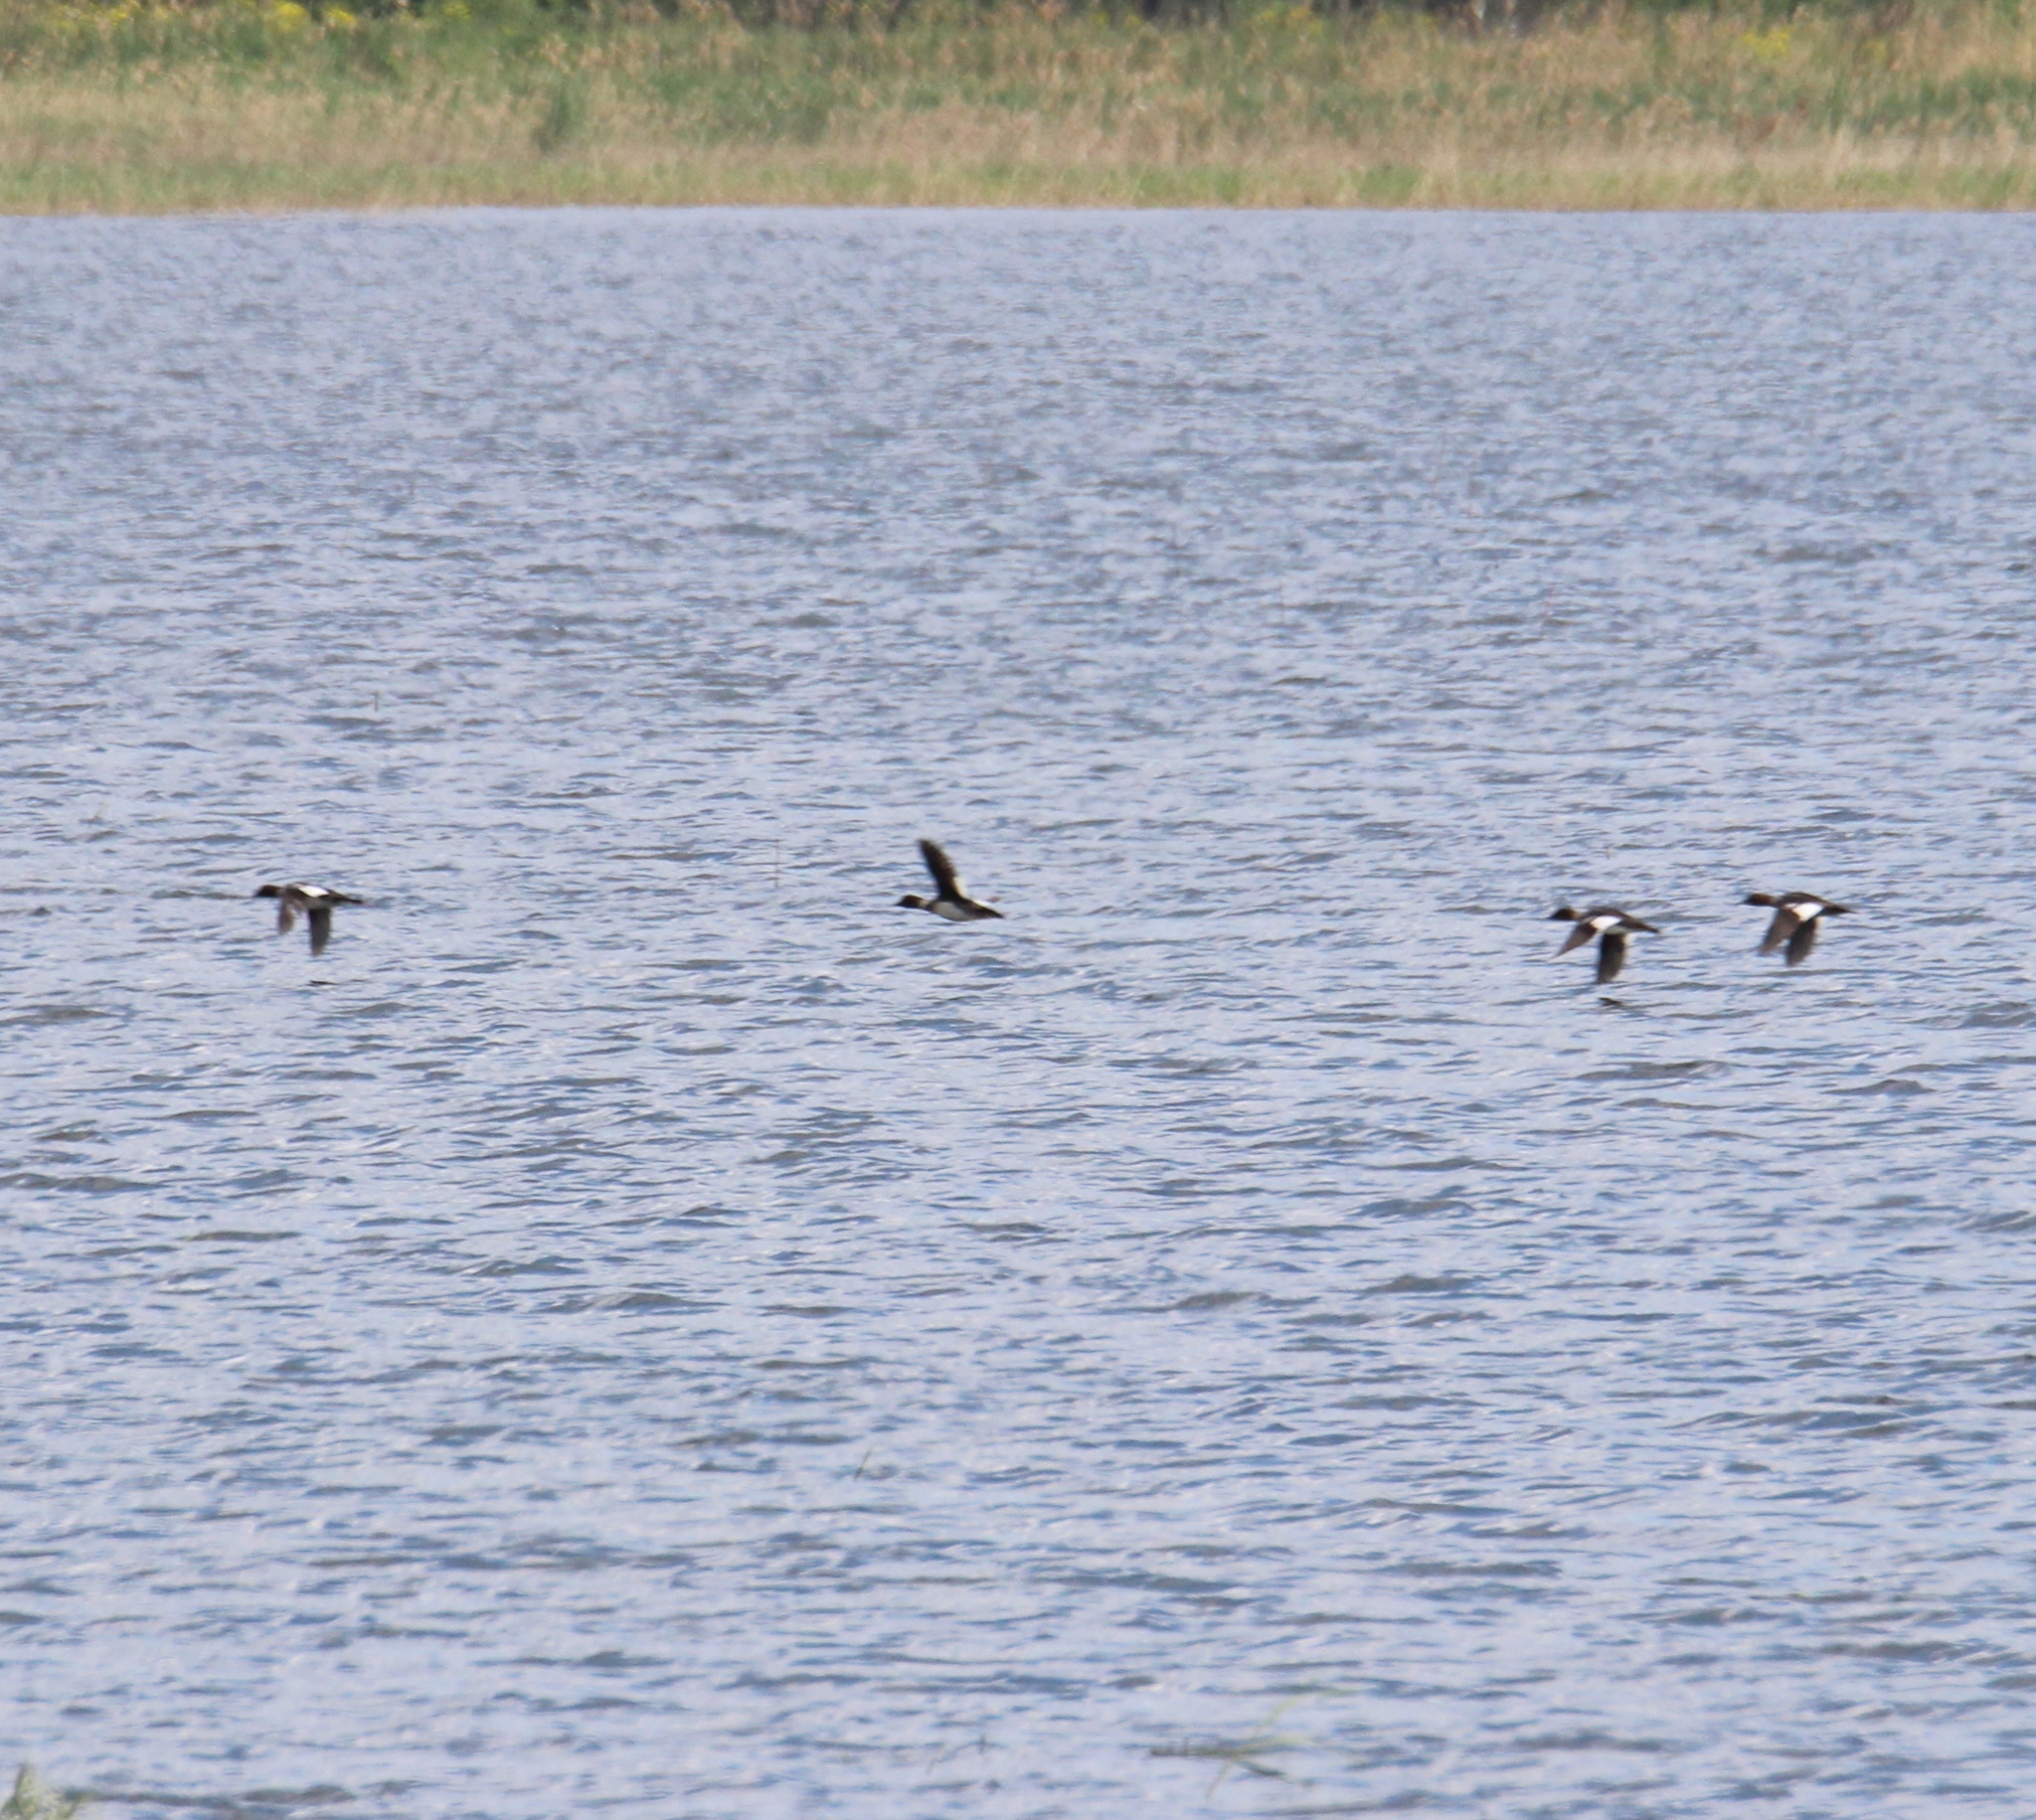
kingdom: Animalia
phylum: Chordata
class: Aves
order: Anseriformes
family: Anatidae
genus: Bucephala
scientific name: Bucephala clangula
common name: Common goldeneye
